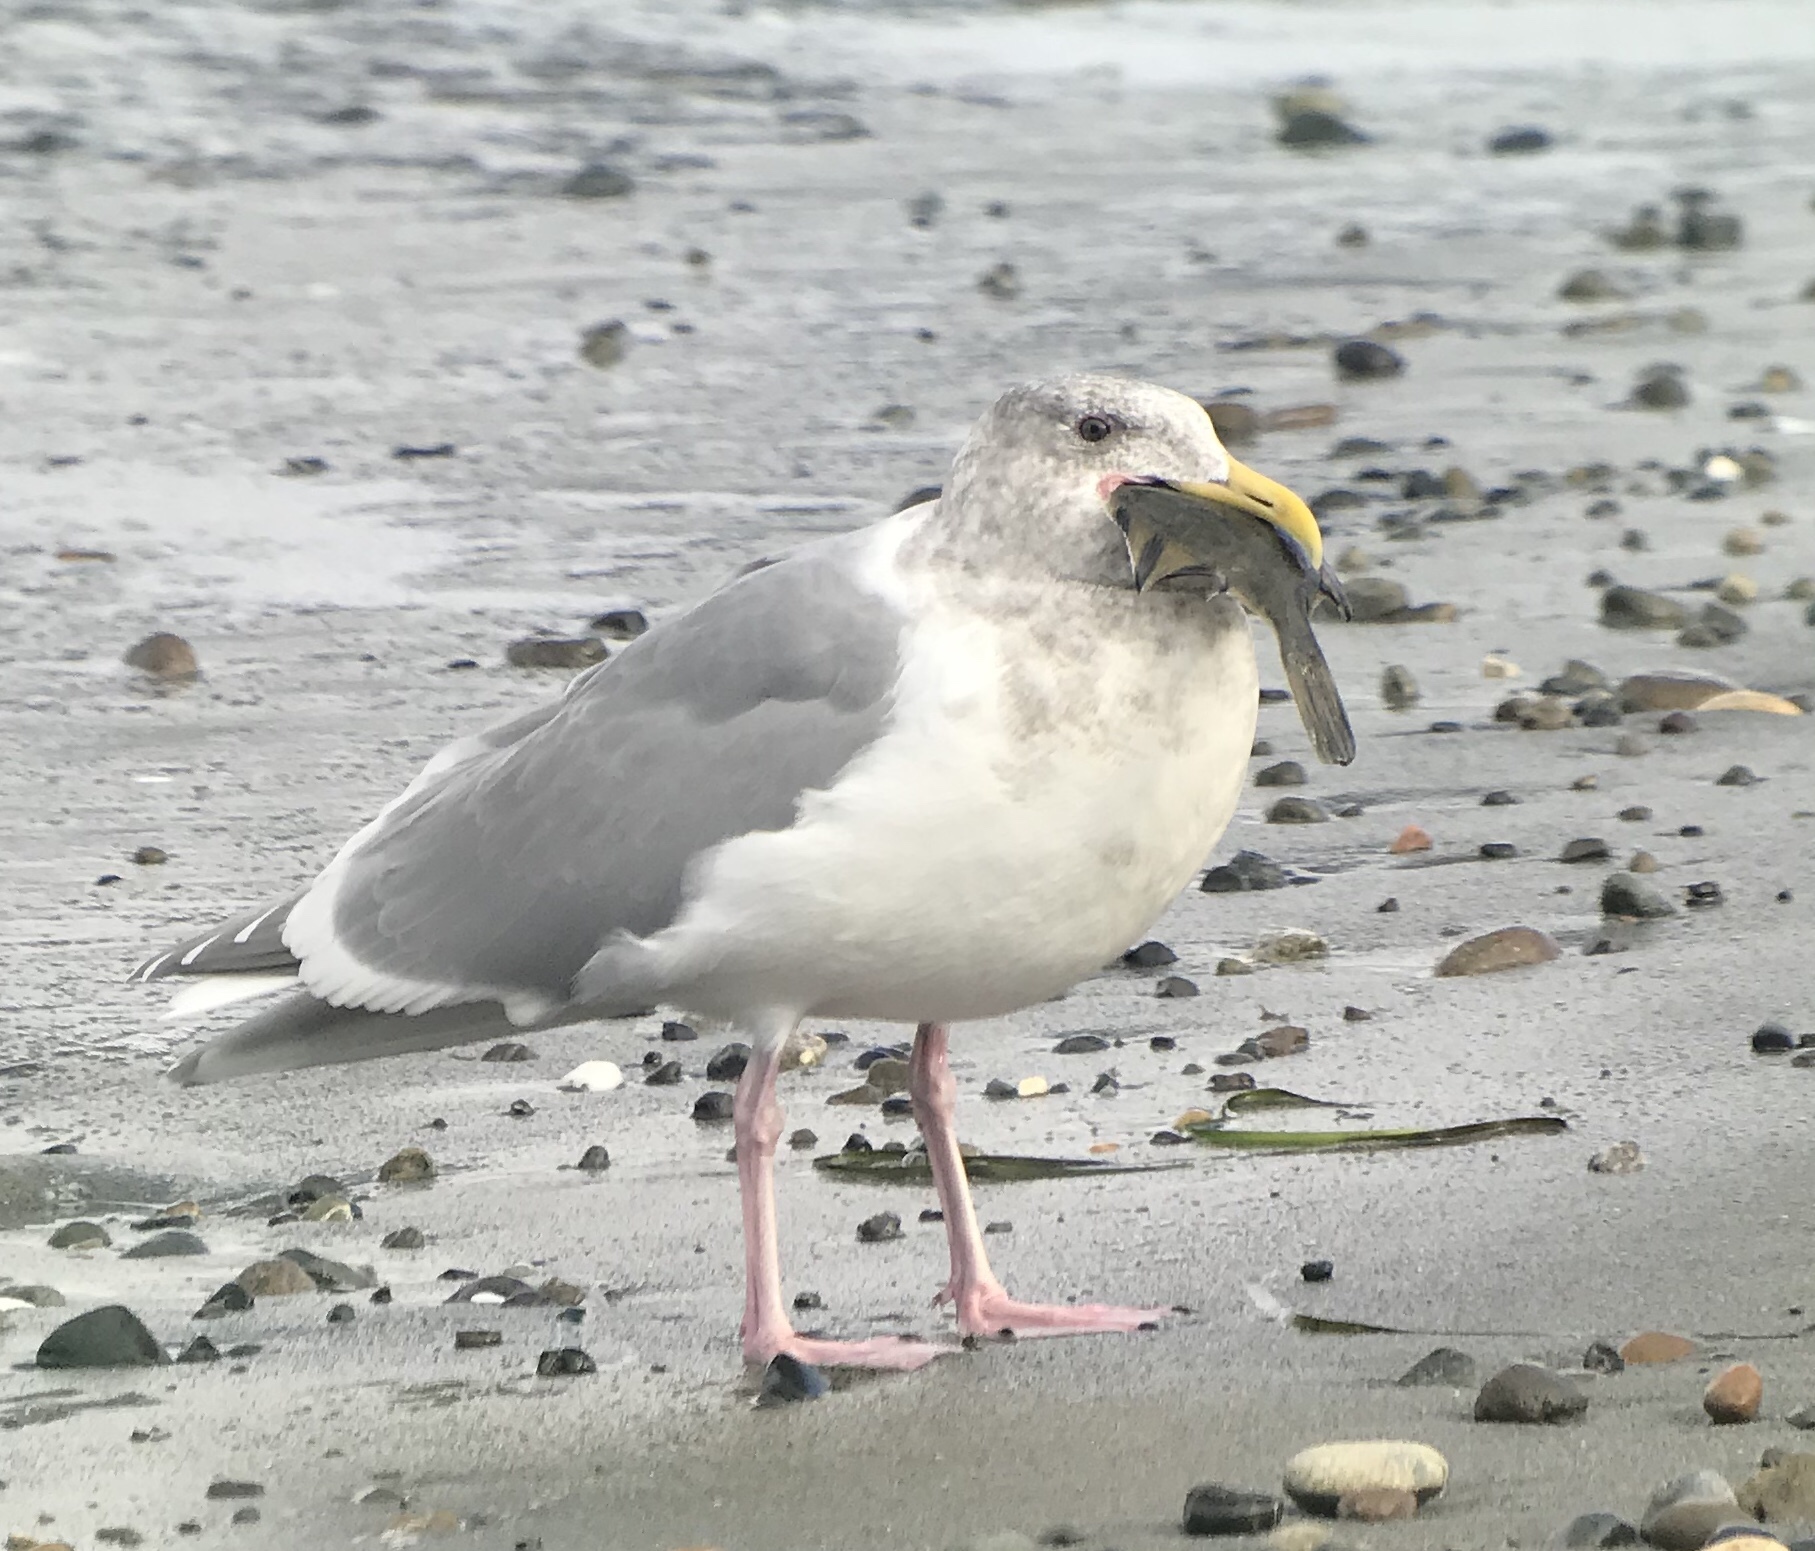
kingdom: Animalia
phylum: Chordata
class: Aves
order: Charadriiformes
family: Laridae
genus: Larus
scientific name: Larus glaucescens
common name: Glaucous-winged gull
